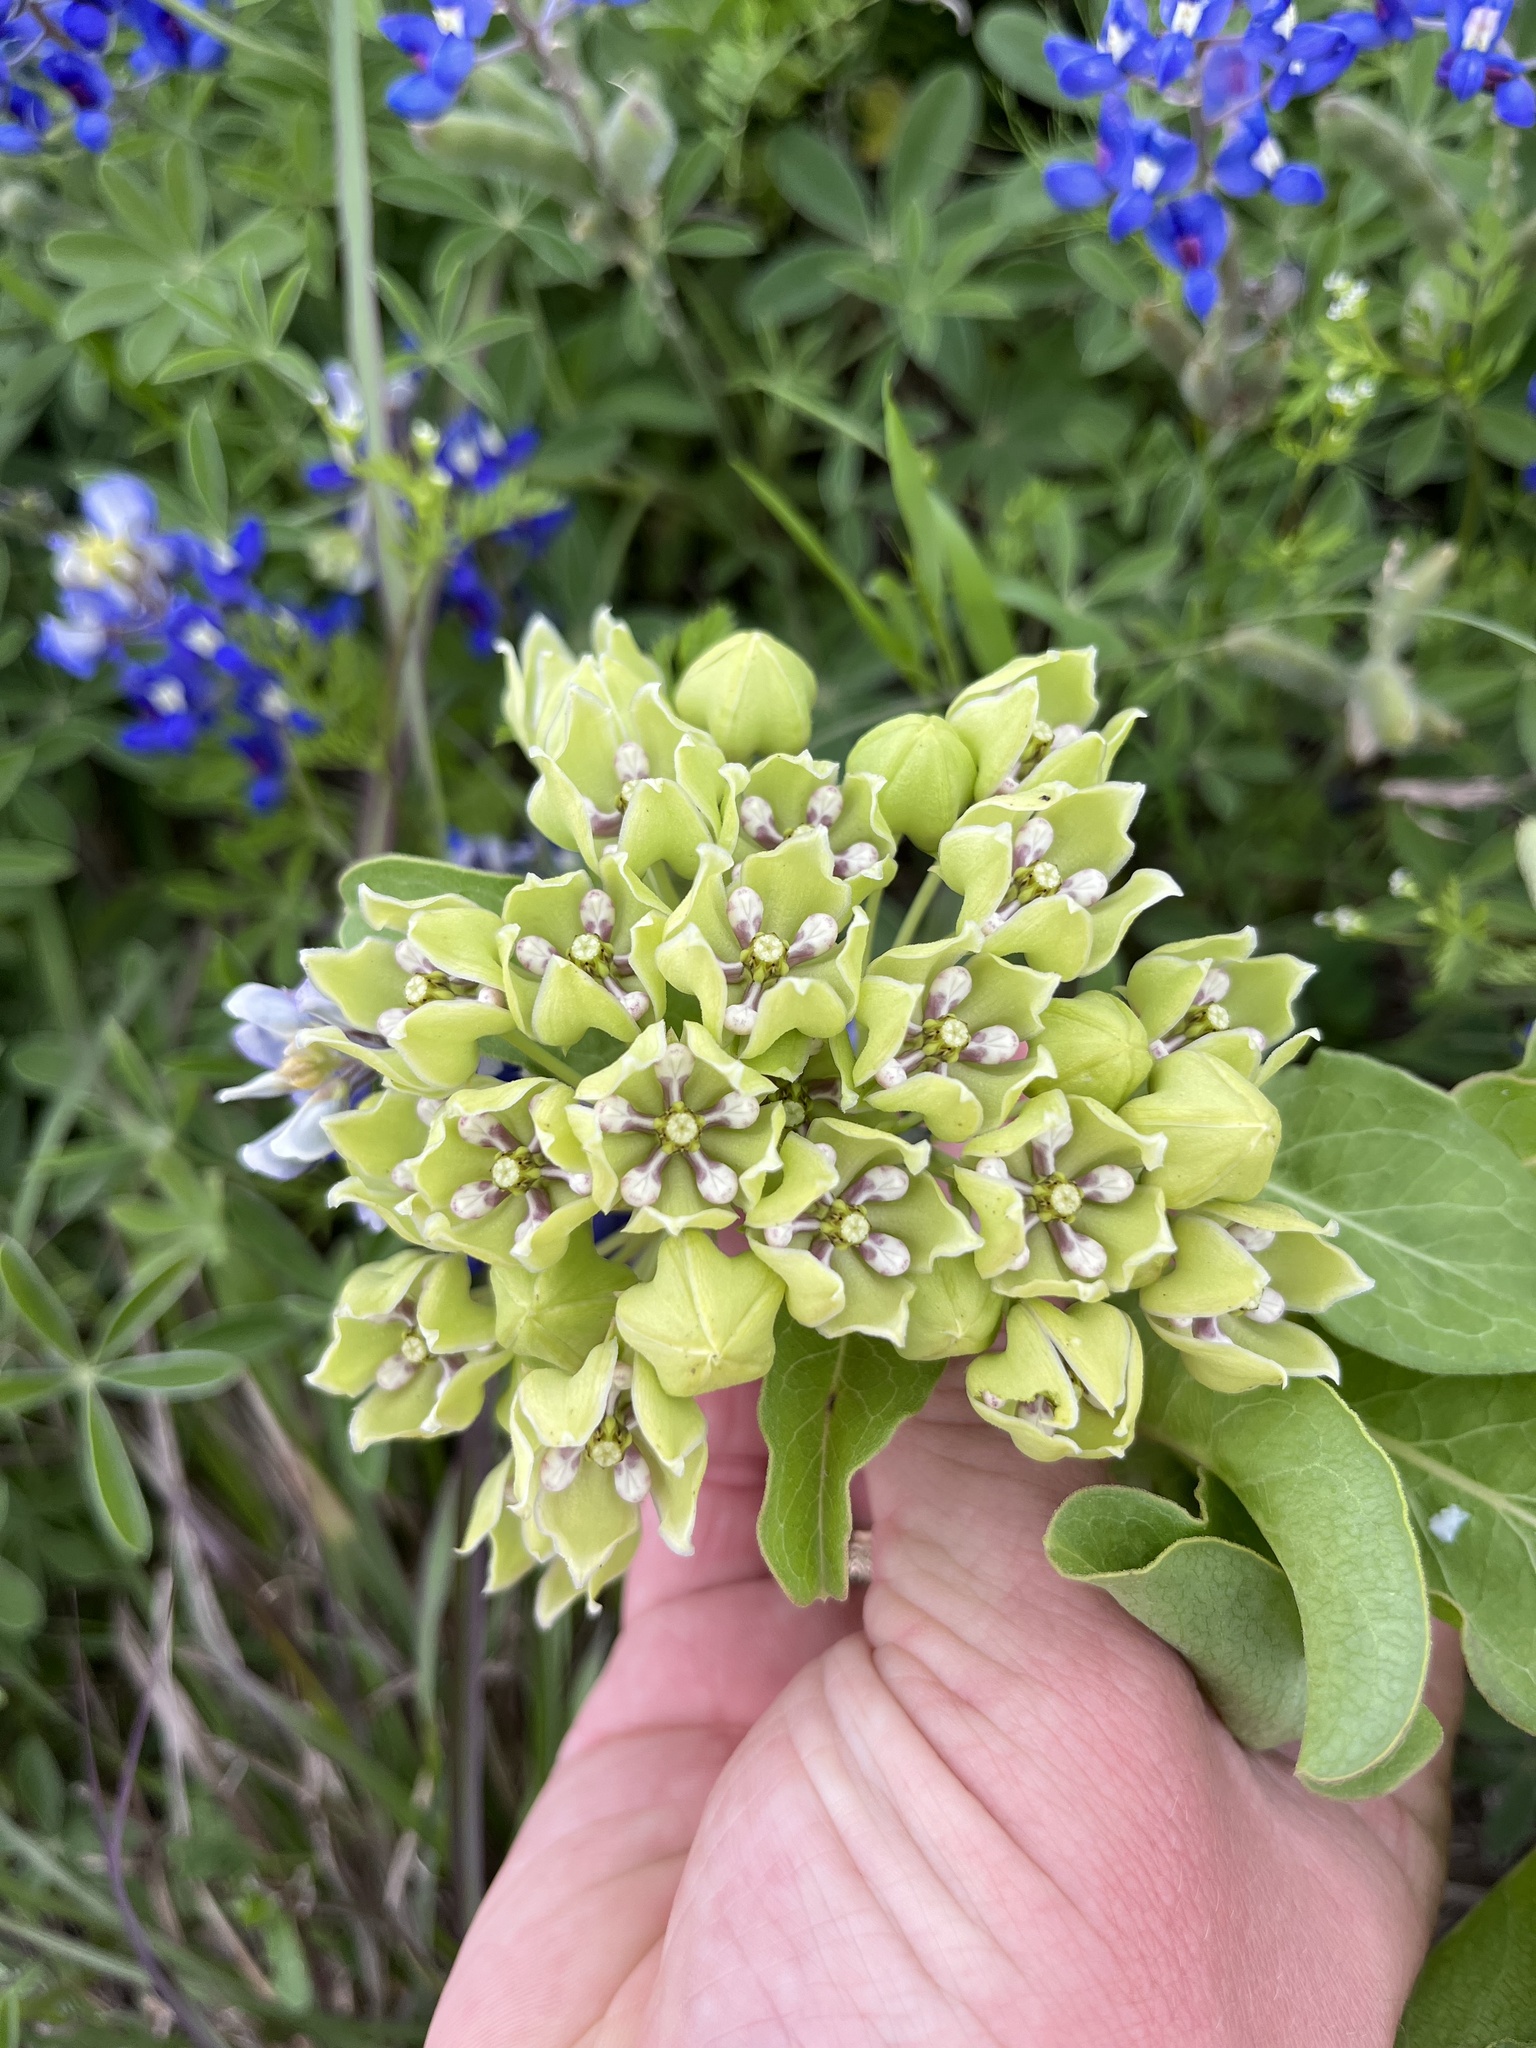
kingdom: Plantae
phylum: Tracheophyta
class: Magnoliopsida
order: Gentianales
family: Apocynaceae
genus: Asclepias
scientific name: Asclepias viridis
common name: Antelope-horns
